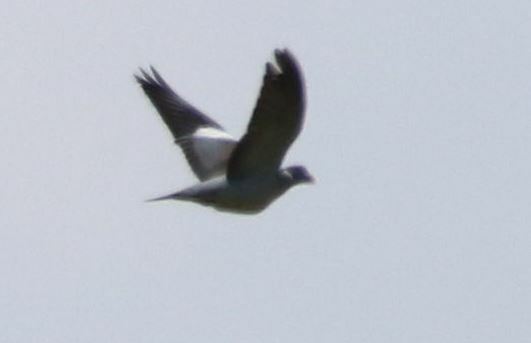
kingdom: Animalia
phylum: Chordata
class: Aves
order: Columbiformes
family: Columbidae
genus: Columba
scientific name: Columba palumbus
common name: Common wood pigeon
